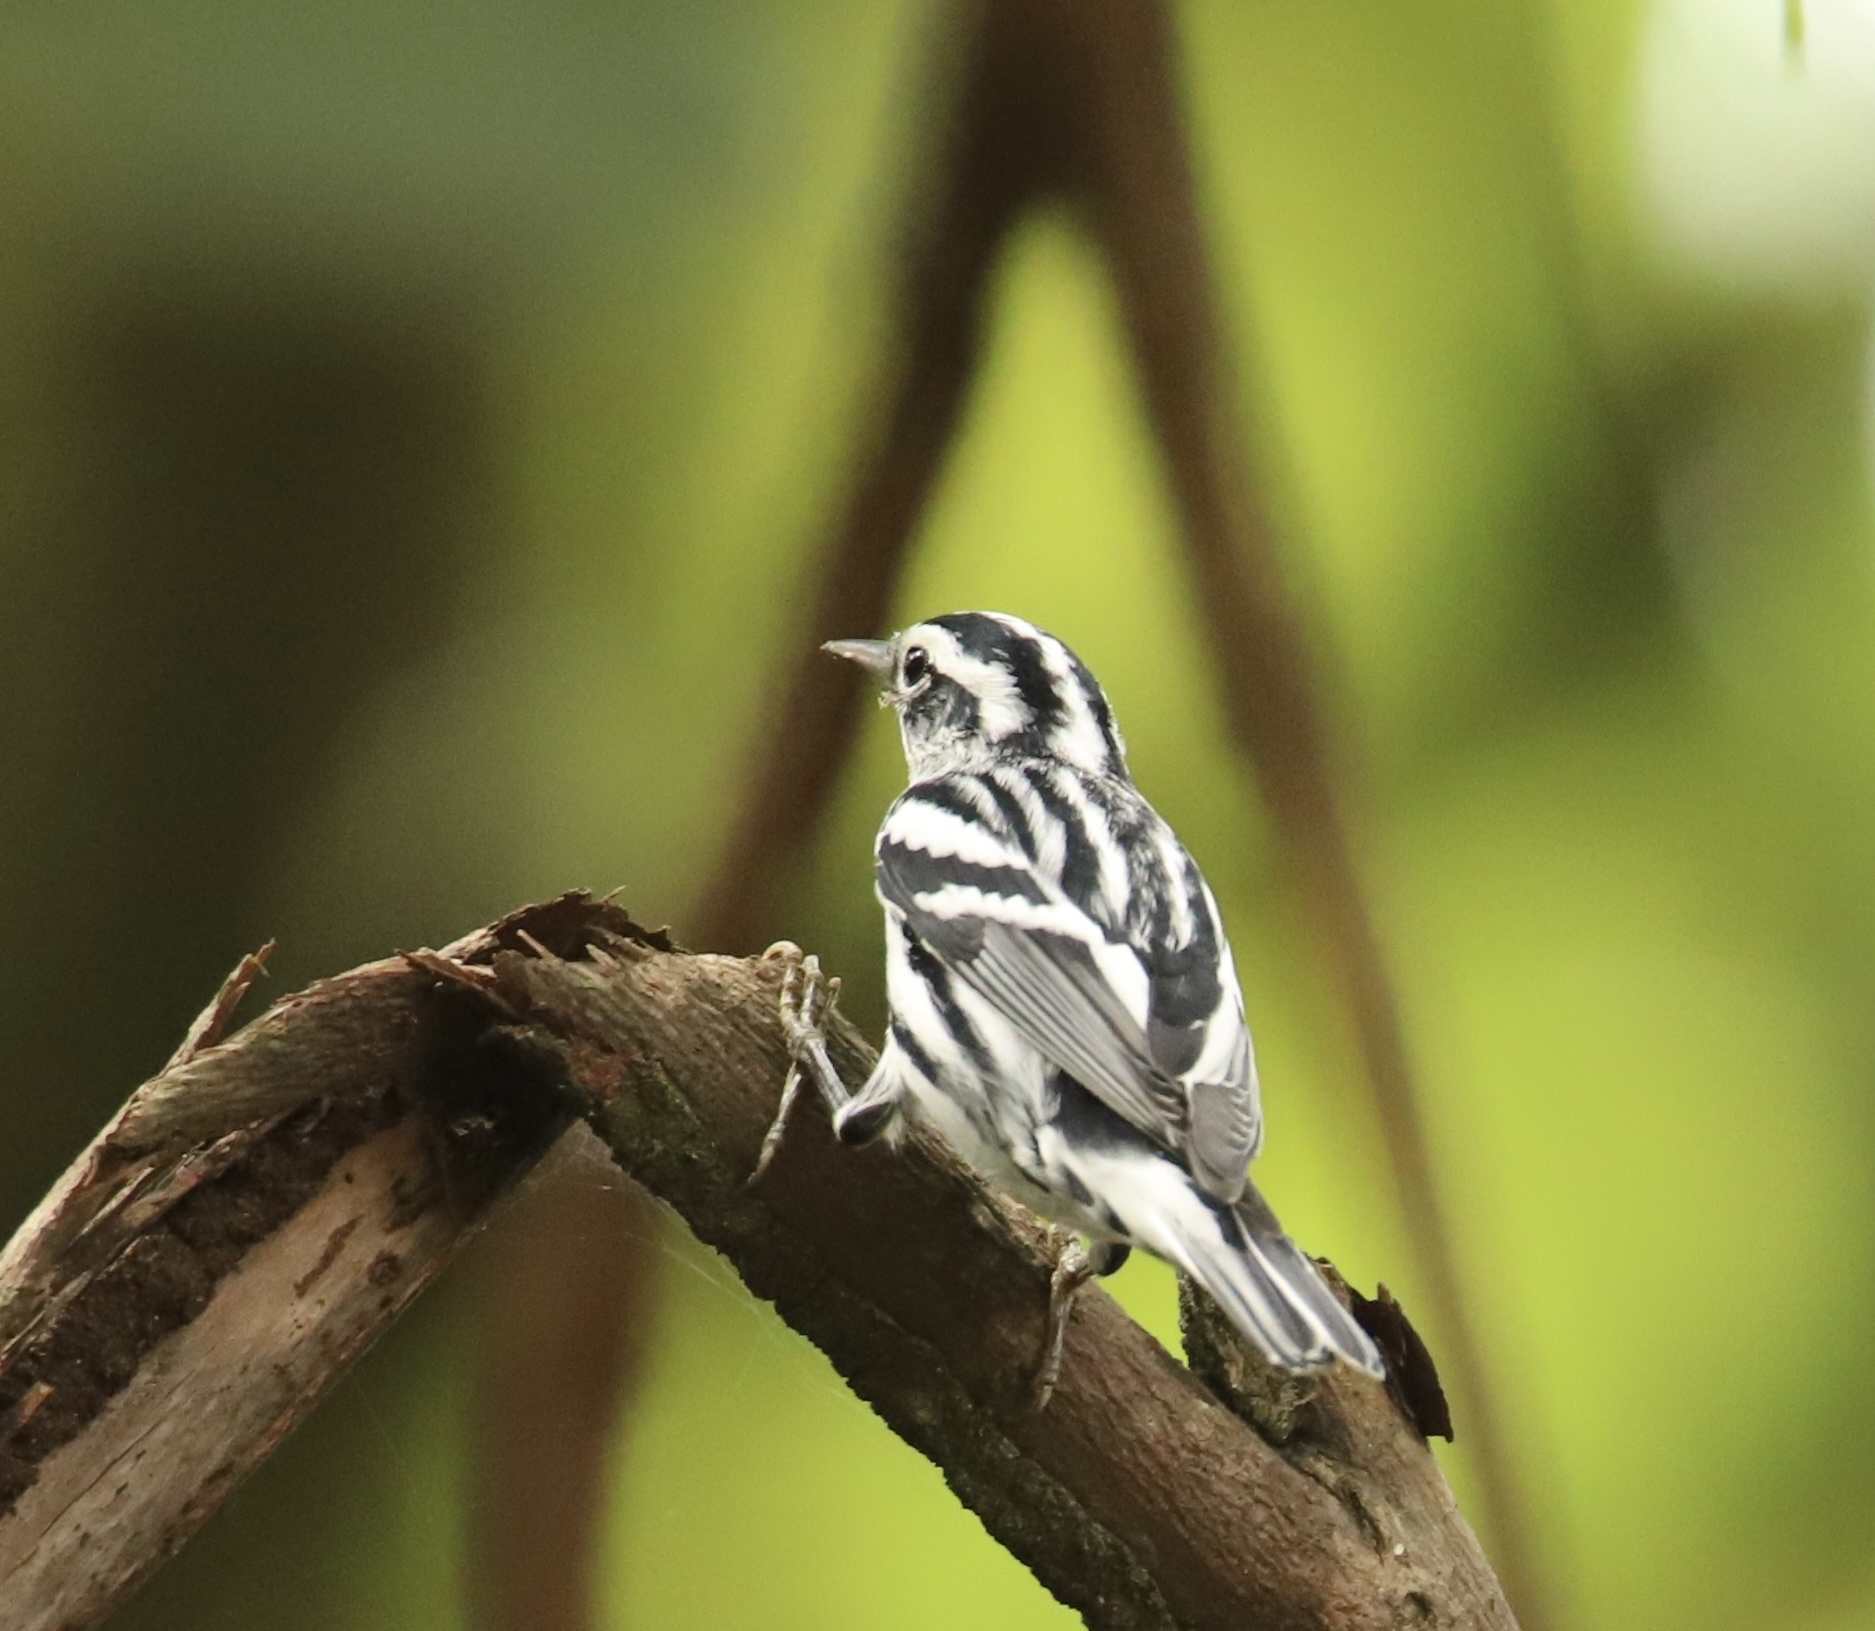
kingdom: Animalia
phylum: Chordata
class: Aves
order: Passeriformes
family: Parulidae
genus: Mniotilta
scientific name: Mniotilta varia
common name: Black-and-white warbler
